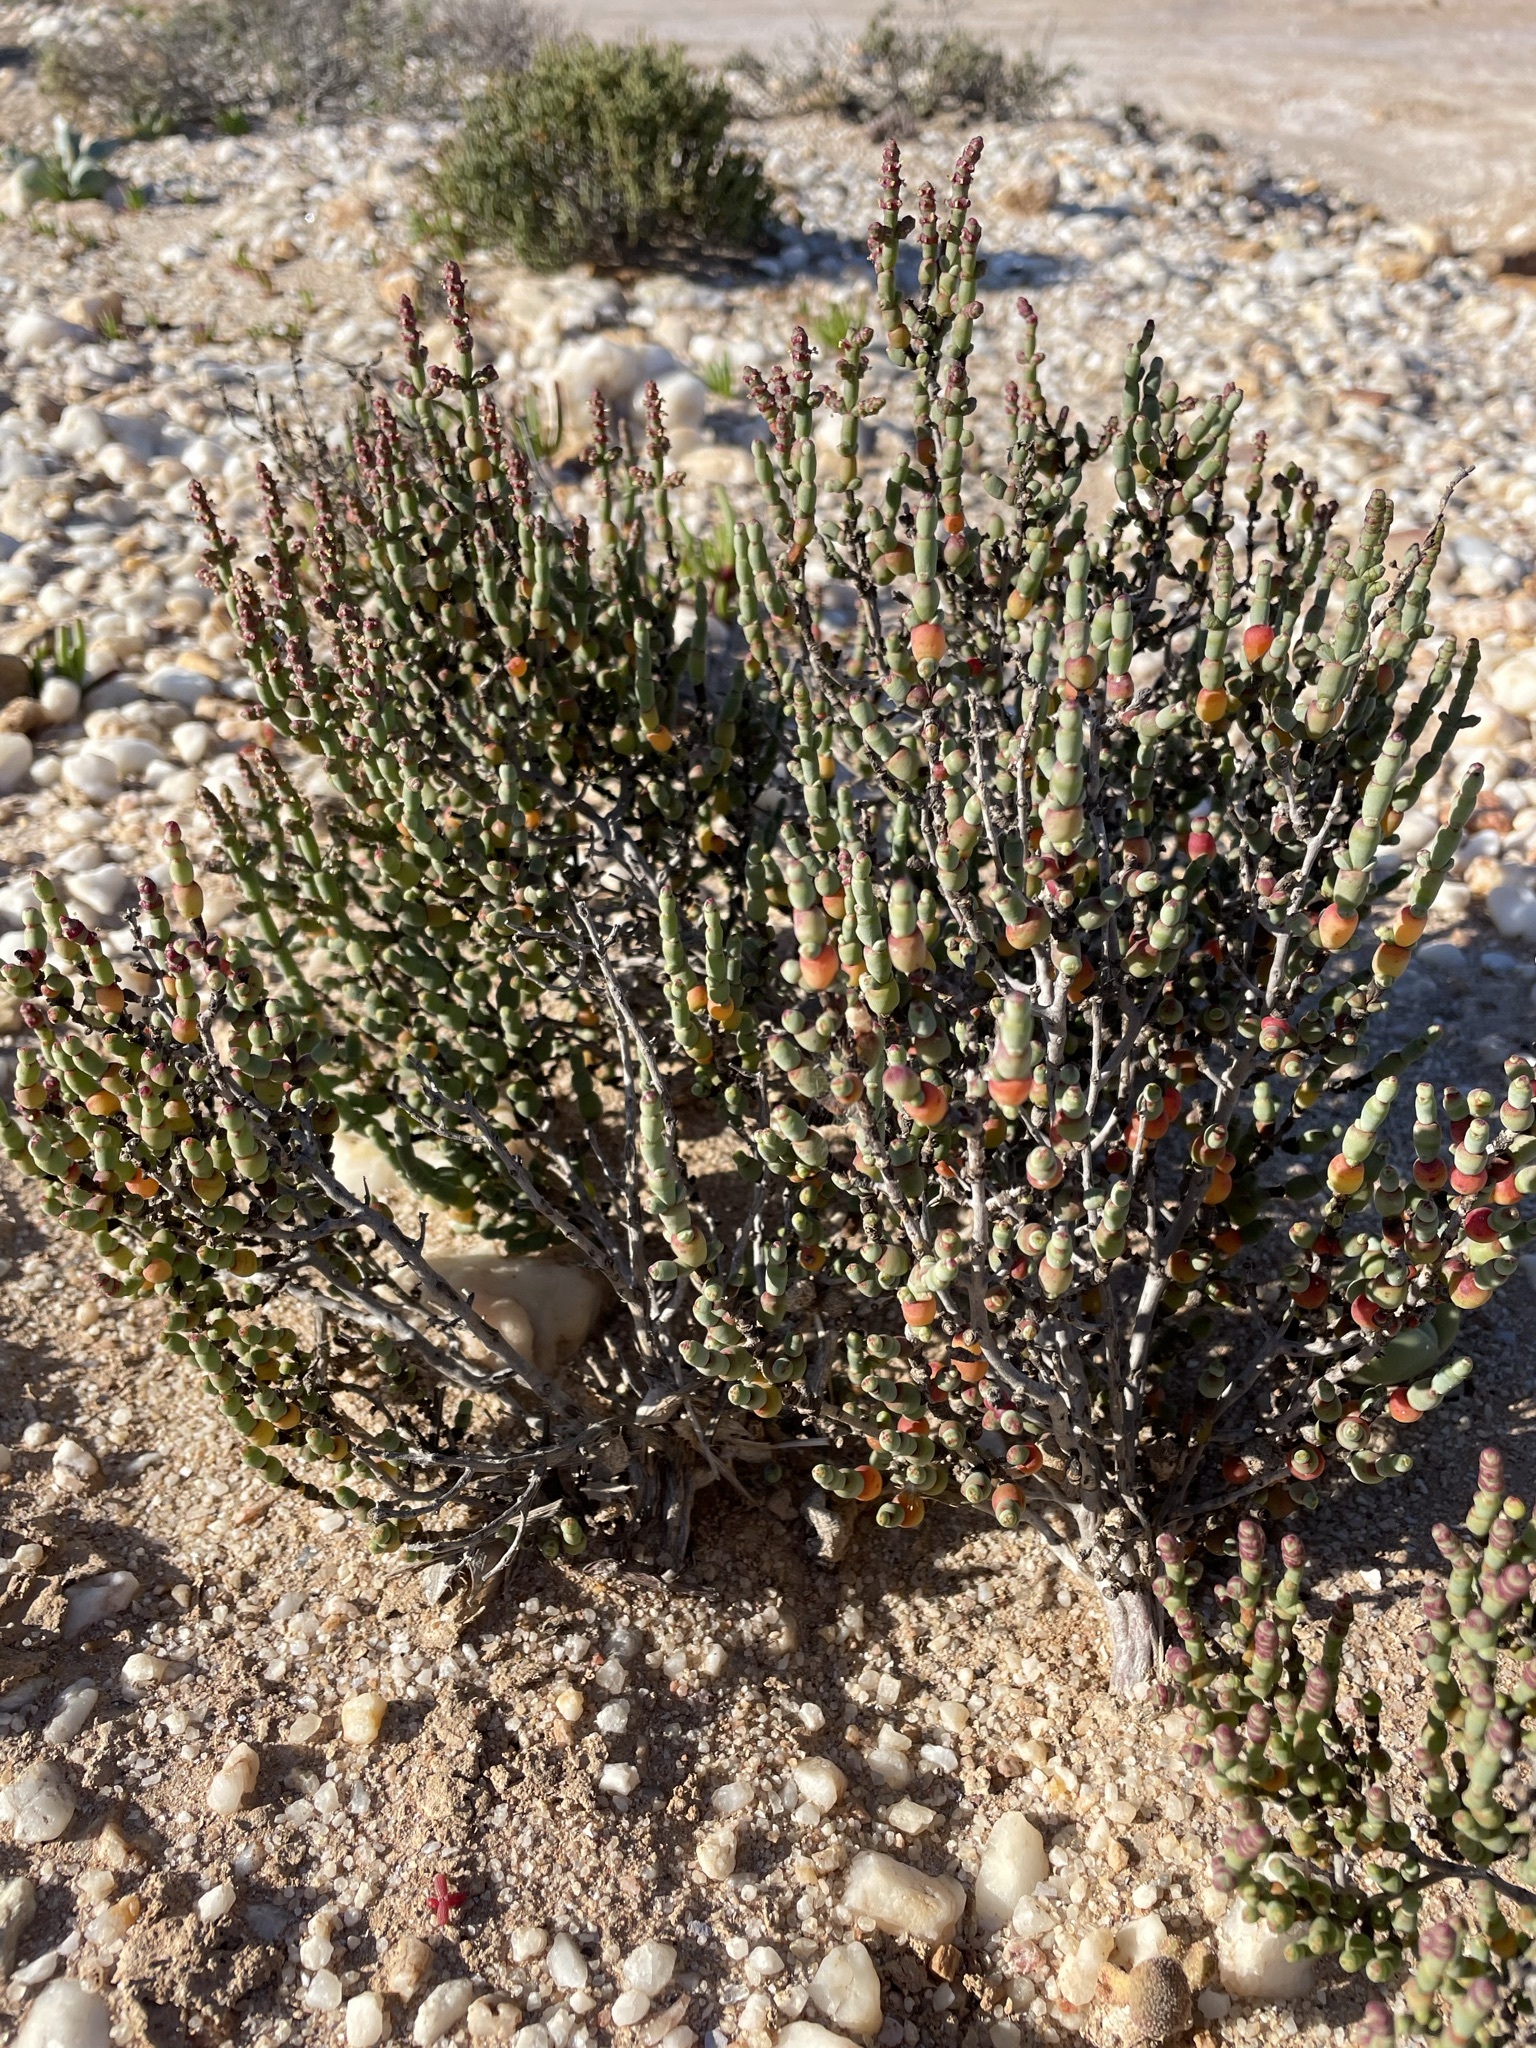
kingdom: Plantae
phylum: Tracheophyta
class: Magnoliopsida
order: Caryophyllales
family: Amaranthaceae
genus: Salicornia
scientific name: Salicornia xerophila
